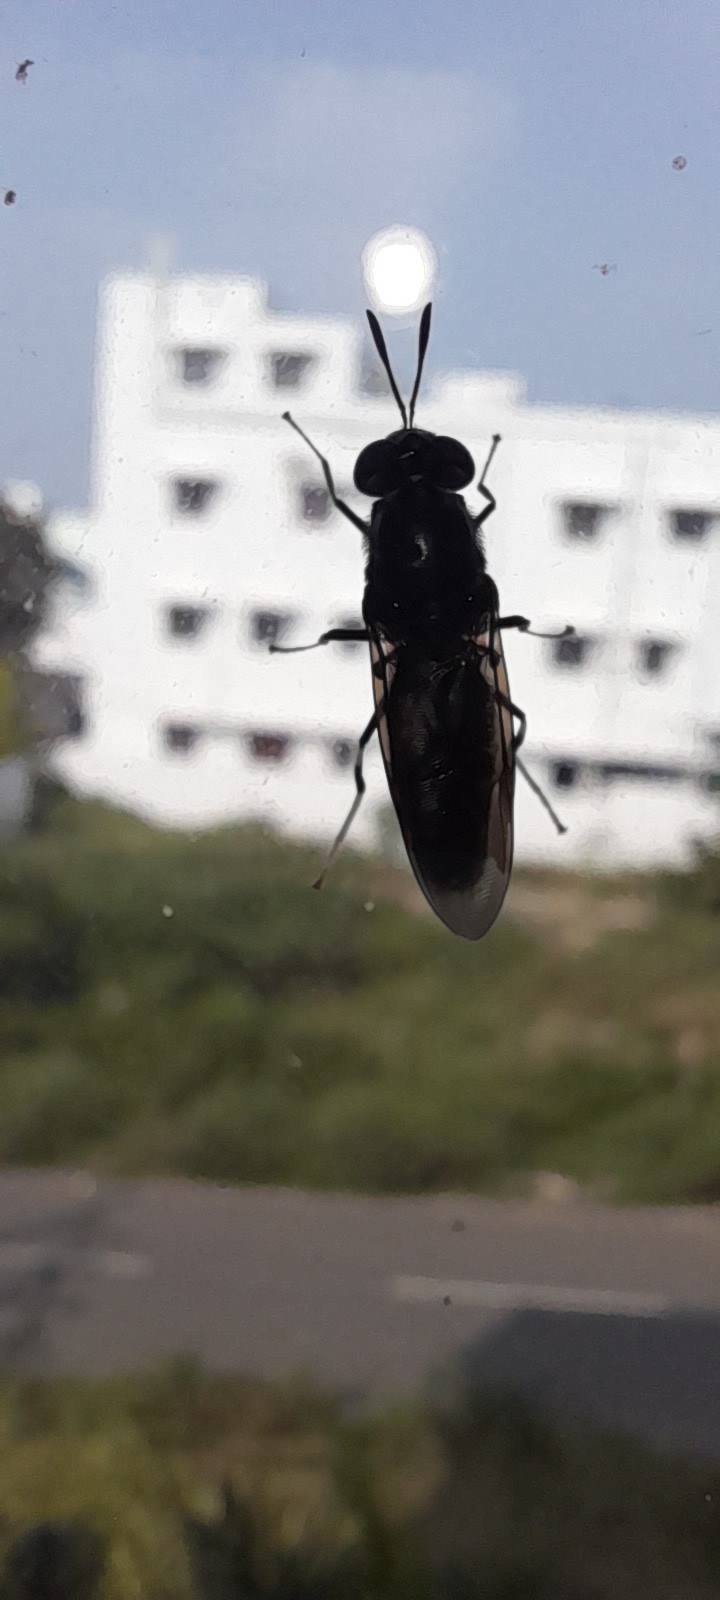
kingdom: Animalia
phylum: Arthropoda
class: Insecta
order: Diptera
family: Stratiomyidae
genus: Hermetia
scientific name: Hermetia illucens
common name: Black soldier fly
